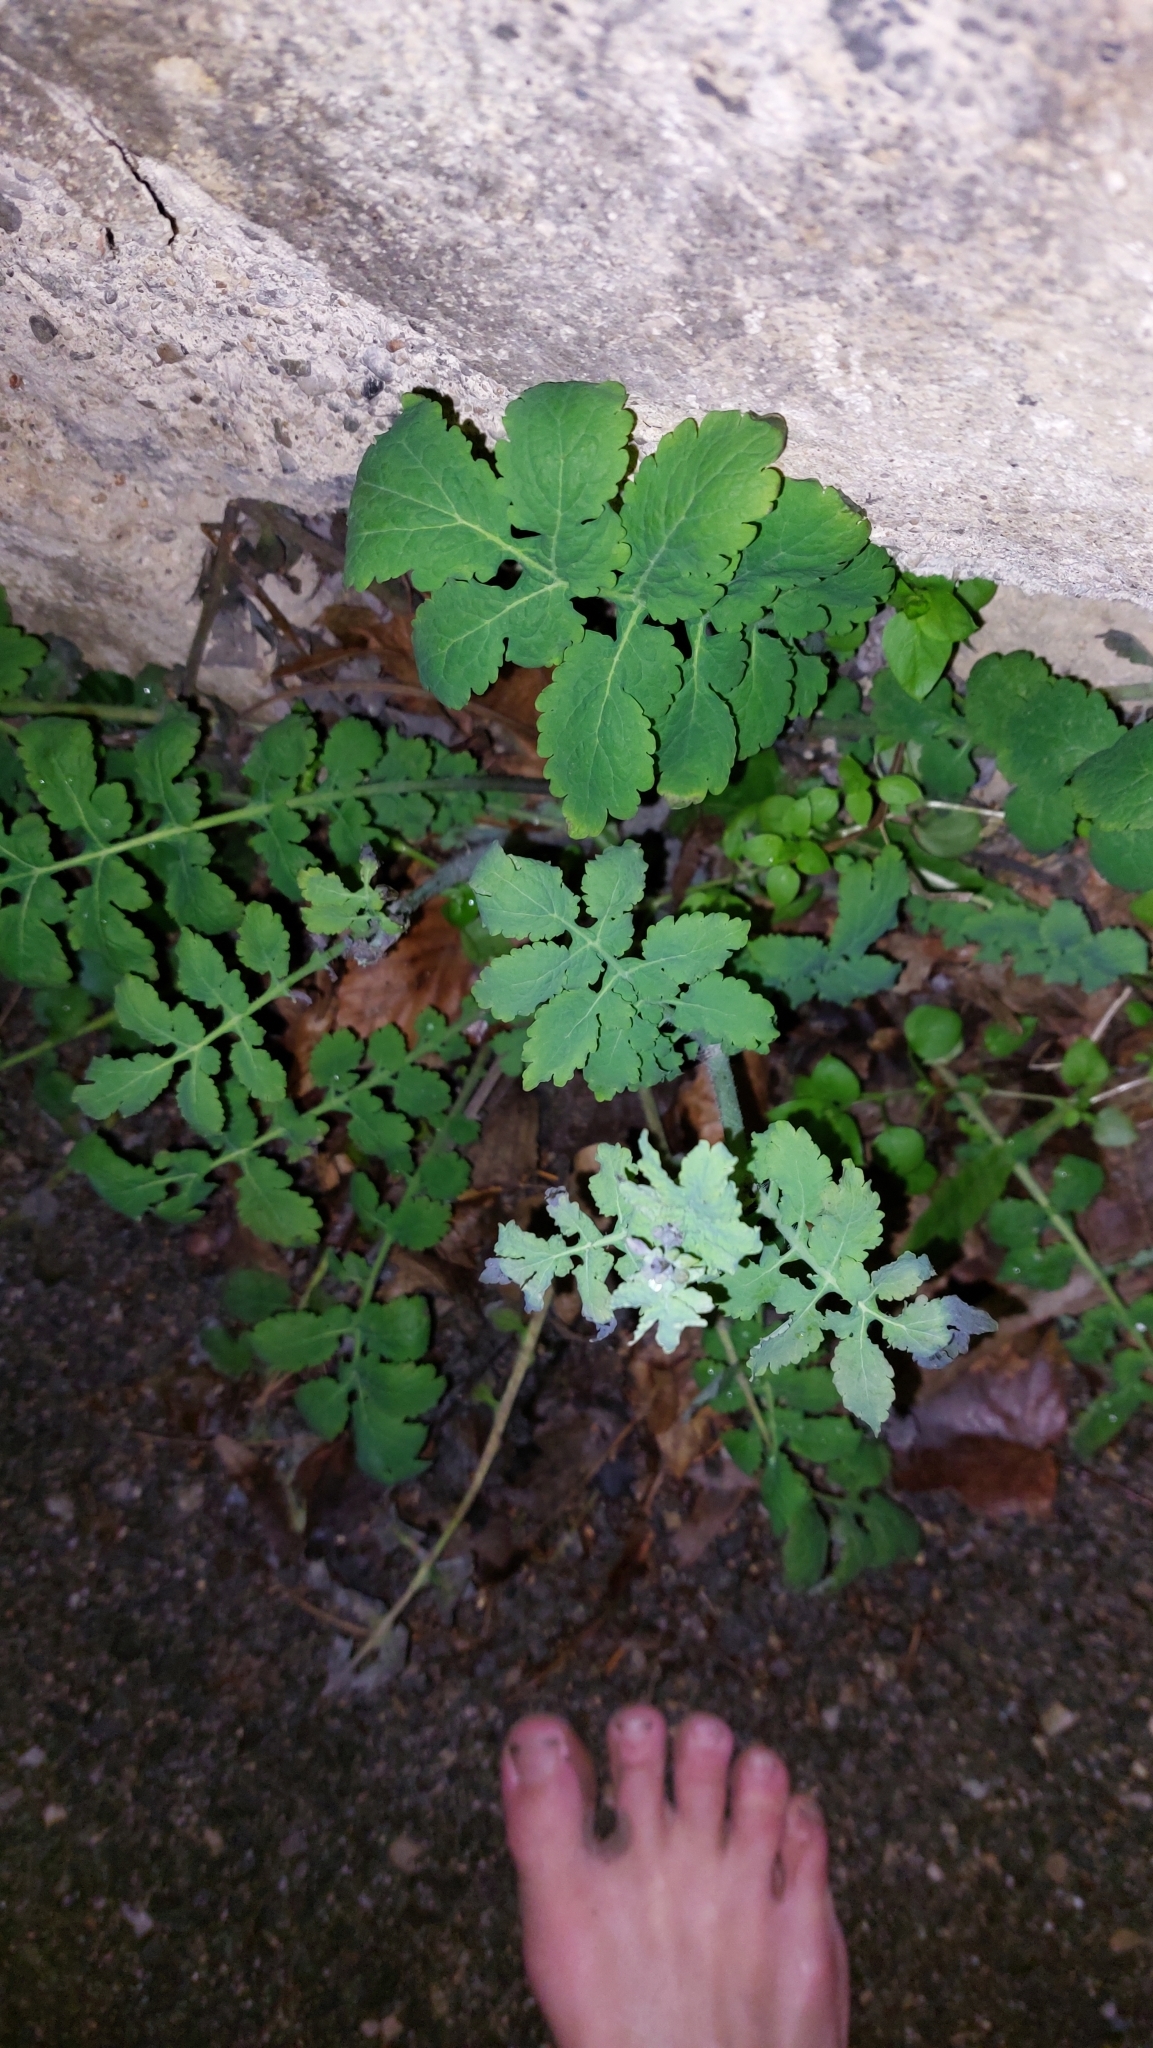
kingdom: Plantae
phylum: Tracheophyta
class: Magnoliopsida
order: Ranunculales
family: Papaveraceae
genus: Chelidonium
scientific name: Chelidonium majus
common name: Greater celandine
